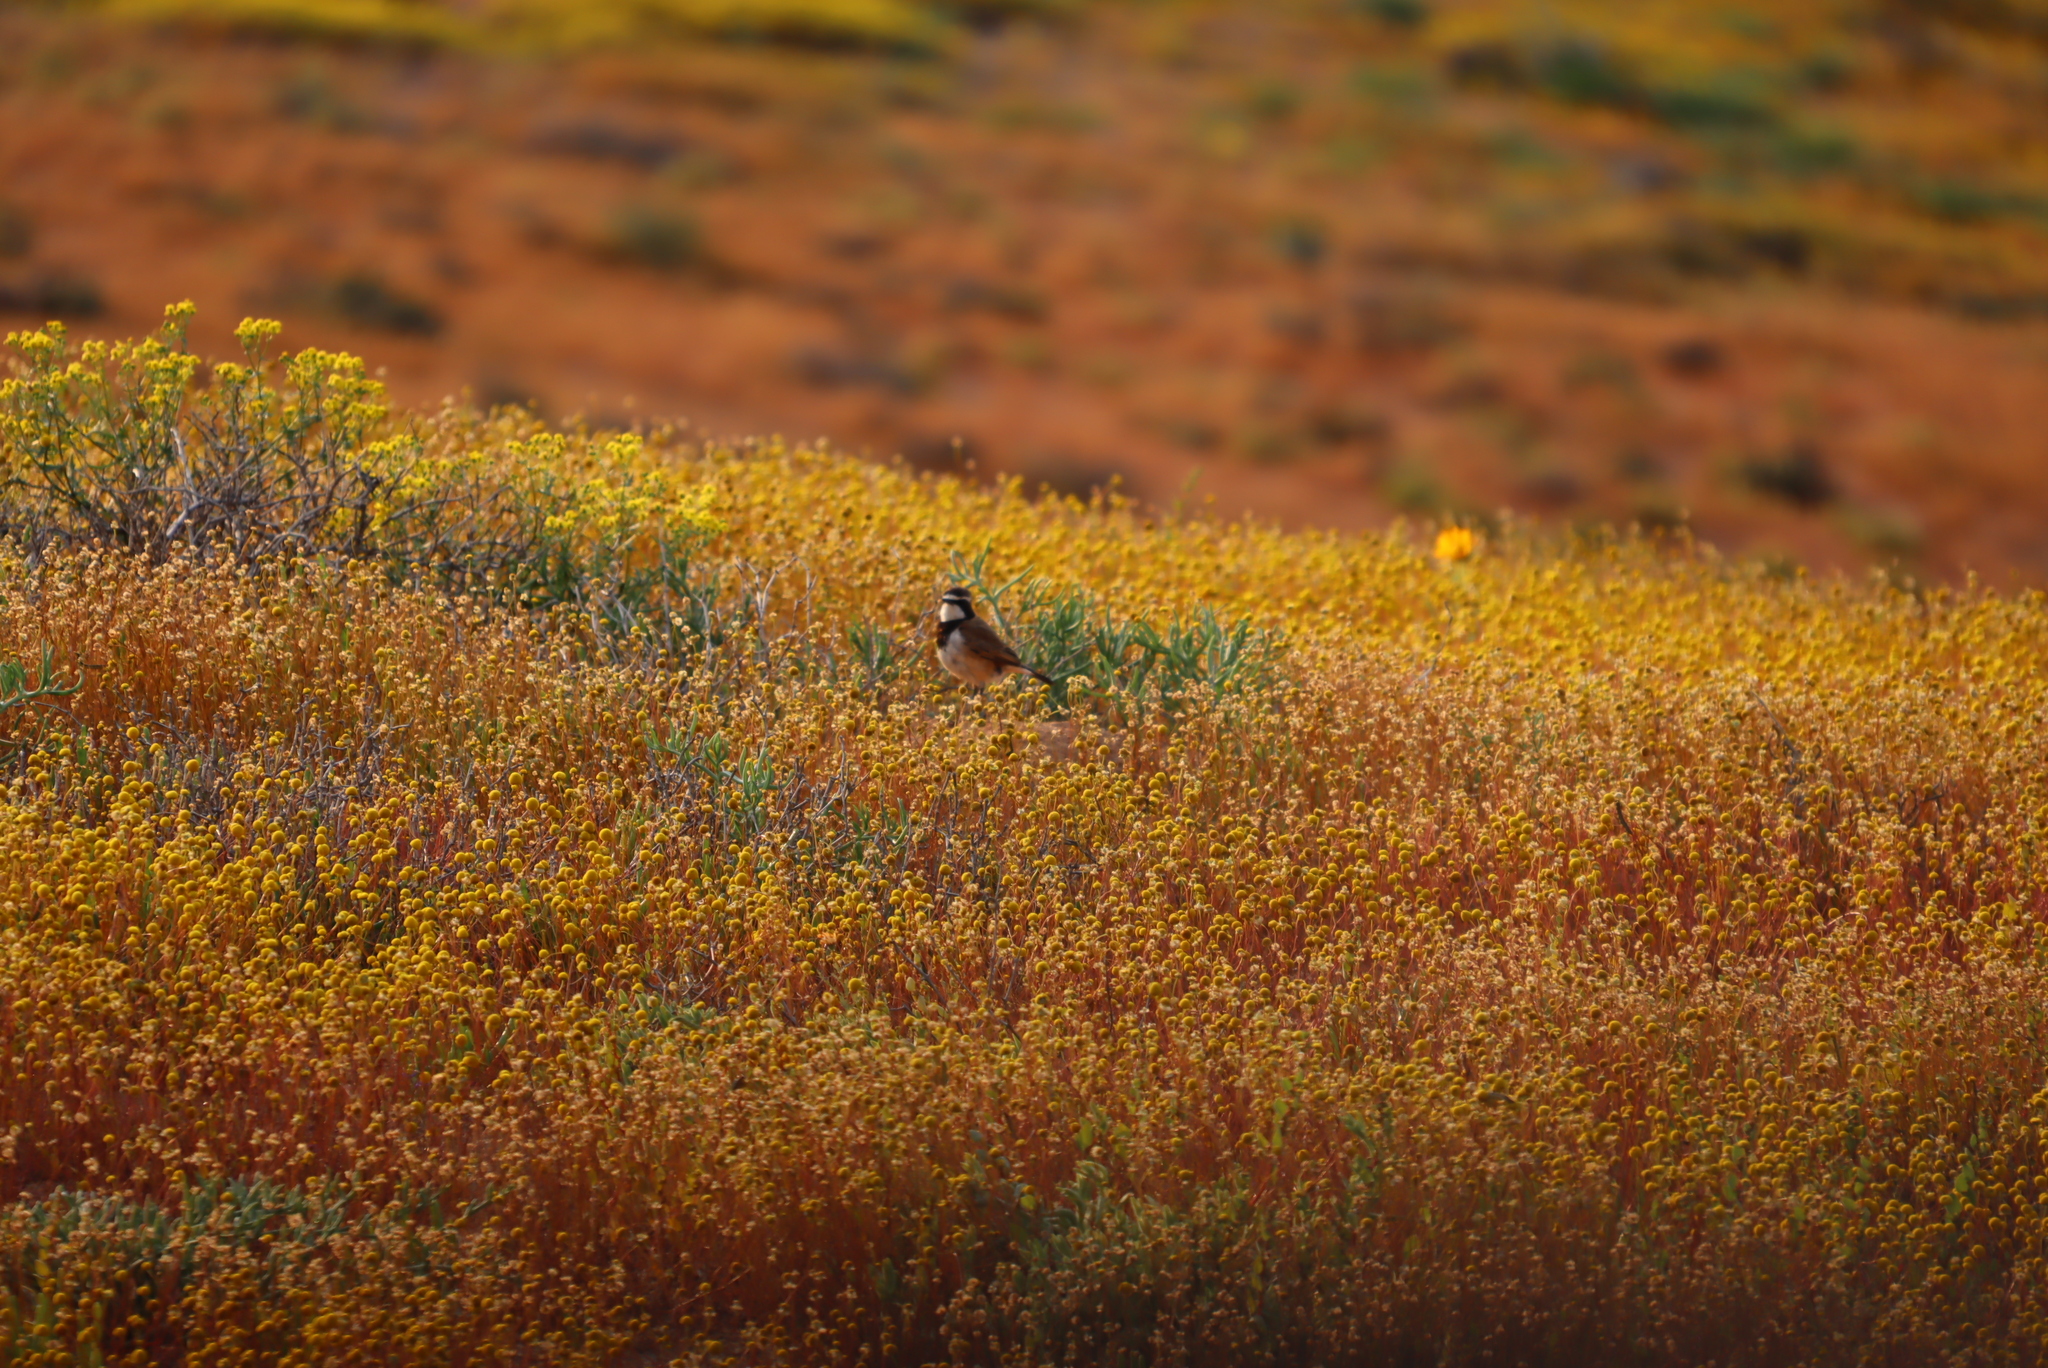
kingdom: Animalia
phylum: Chordata
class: Aves
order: Passeriformes
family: Muscicapidae
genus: Oenanthe
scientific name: Oenanthe pileata
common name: Capped wheatear
